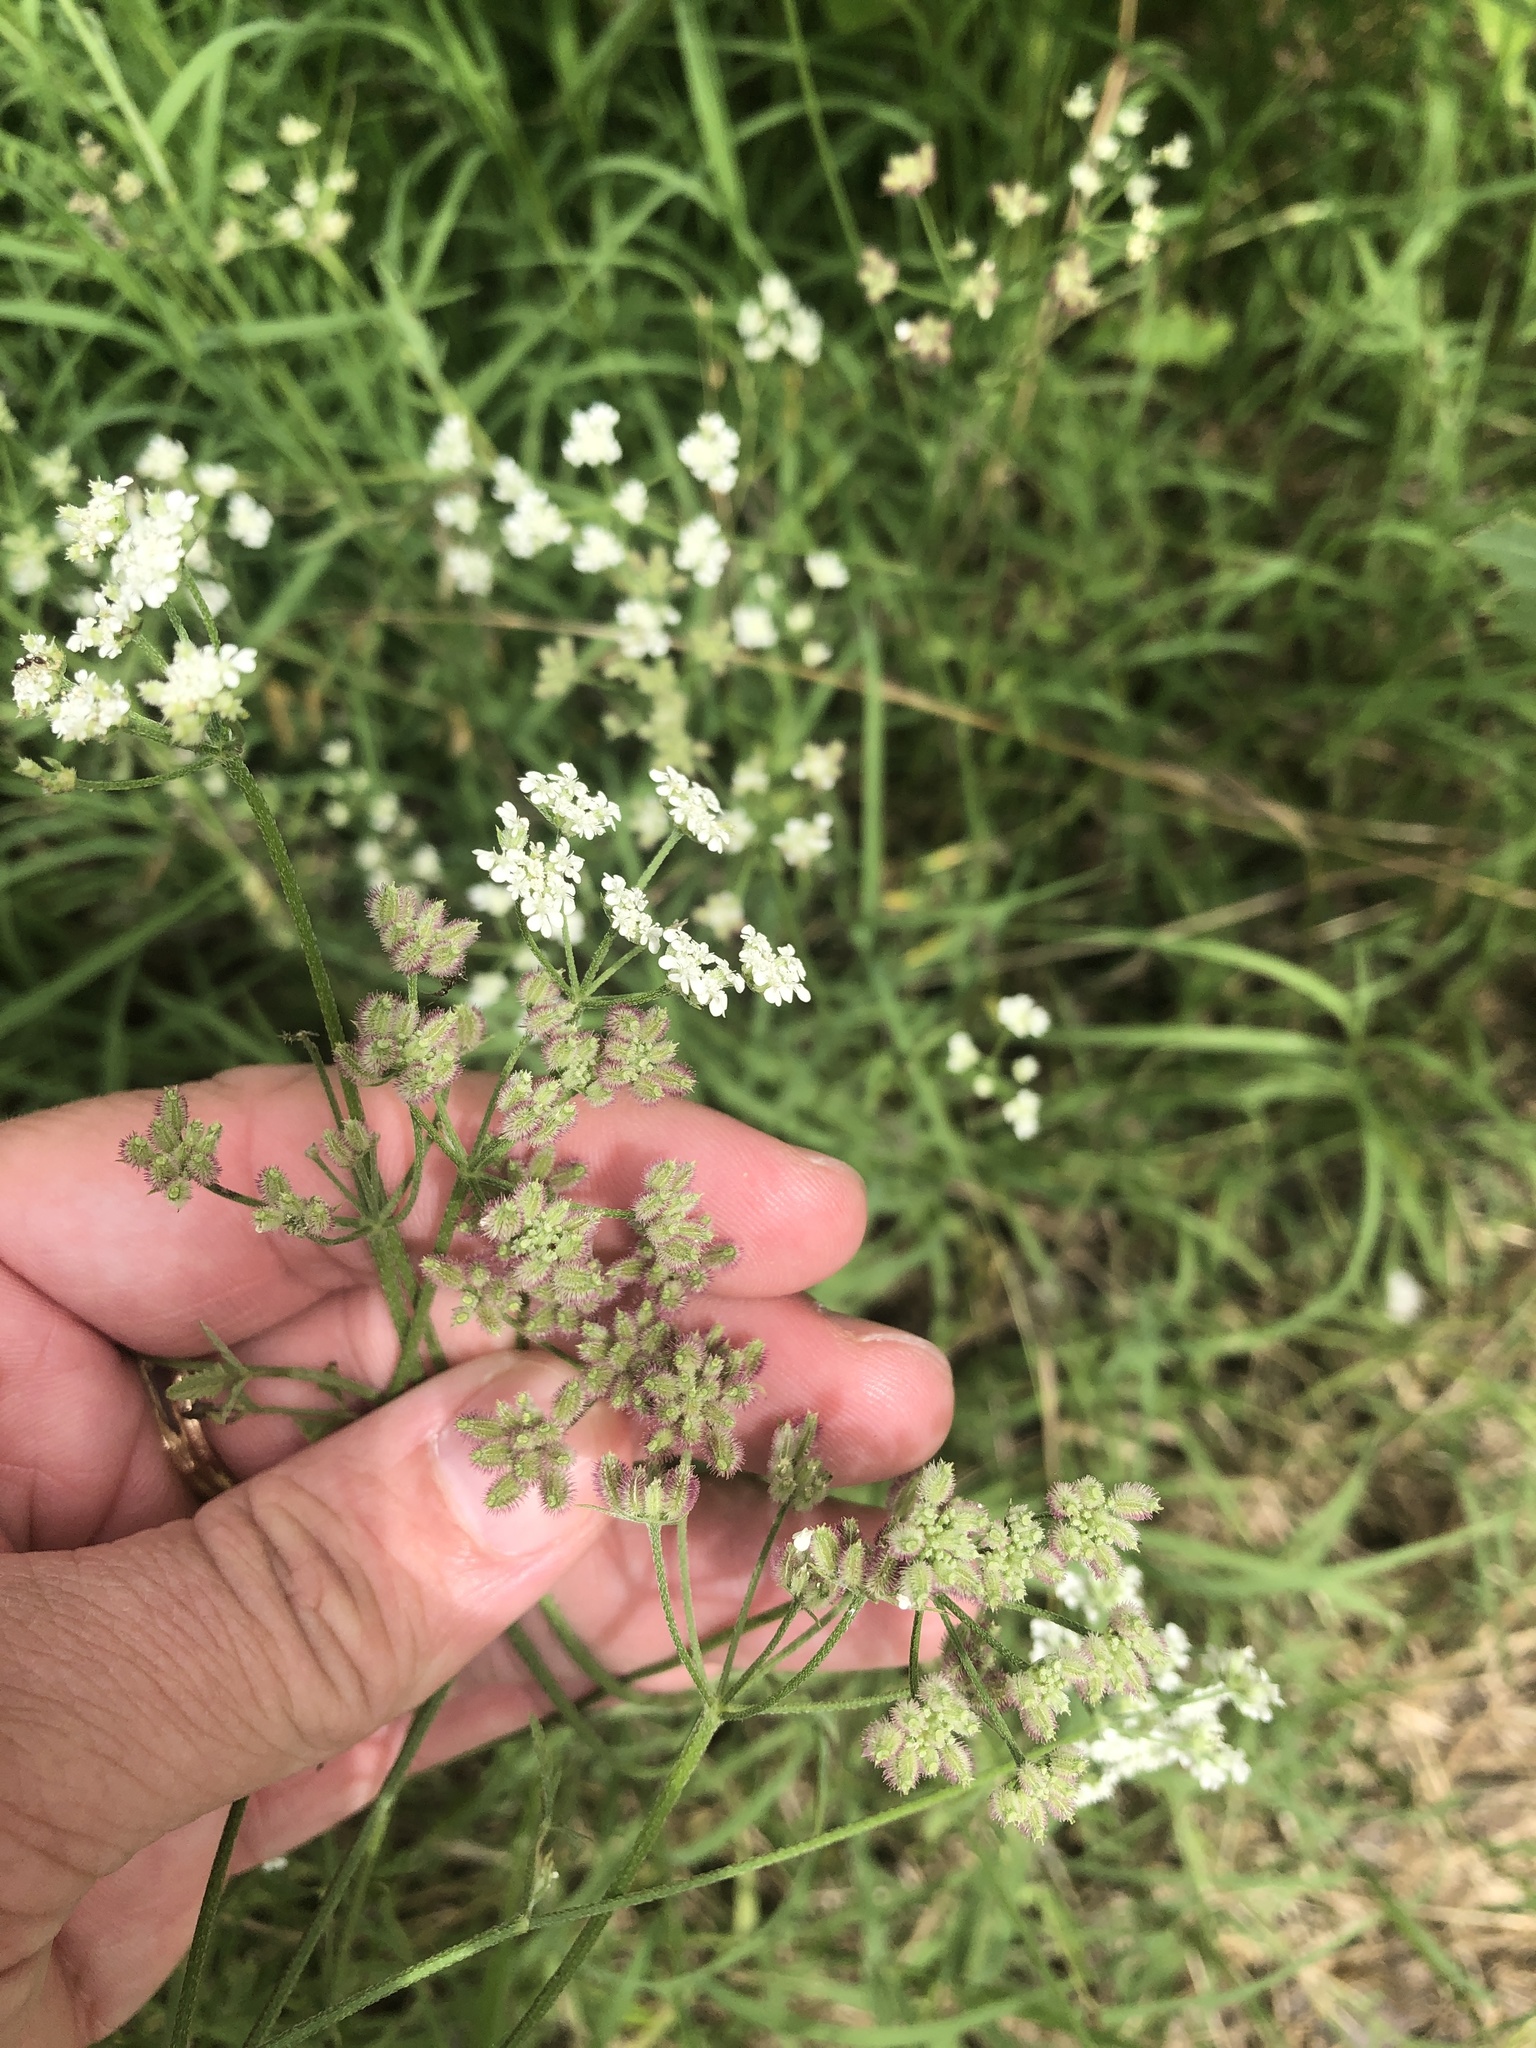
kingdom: Plantae
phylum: Tracheophyta
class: Magnoliopsida
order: Apiales
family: Apiaceae
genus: Torilis
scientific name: Torilis arvensis
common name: Spreading hedge-parsley
